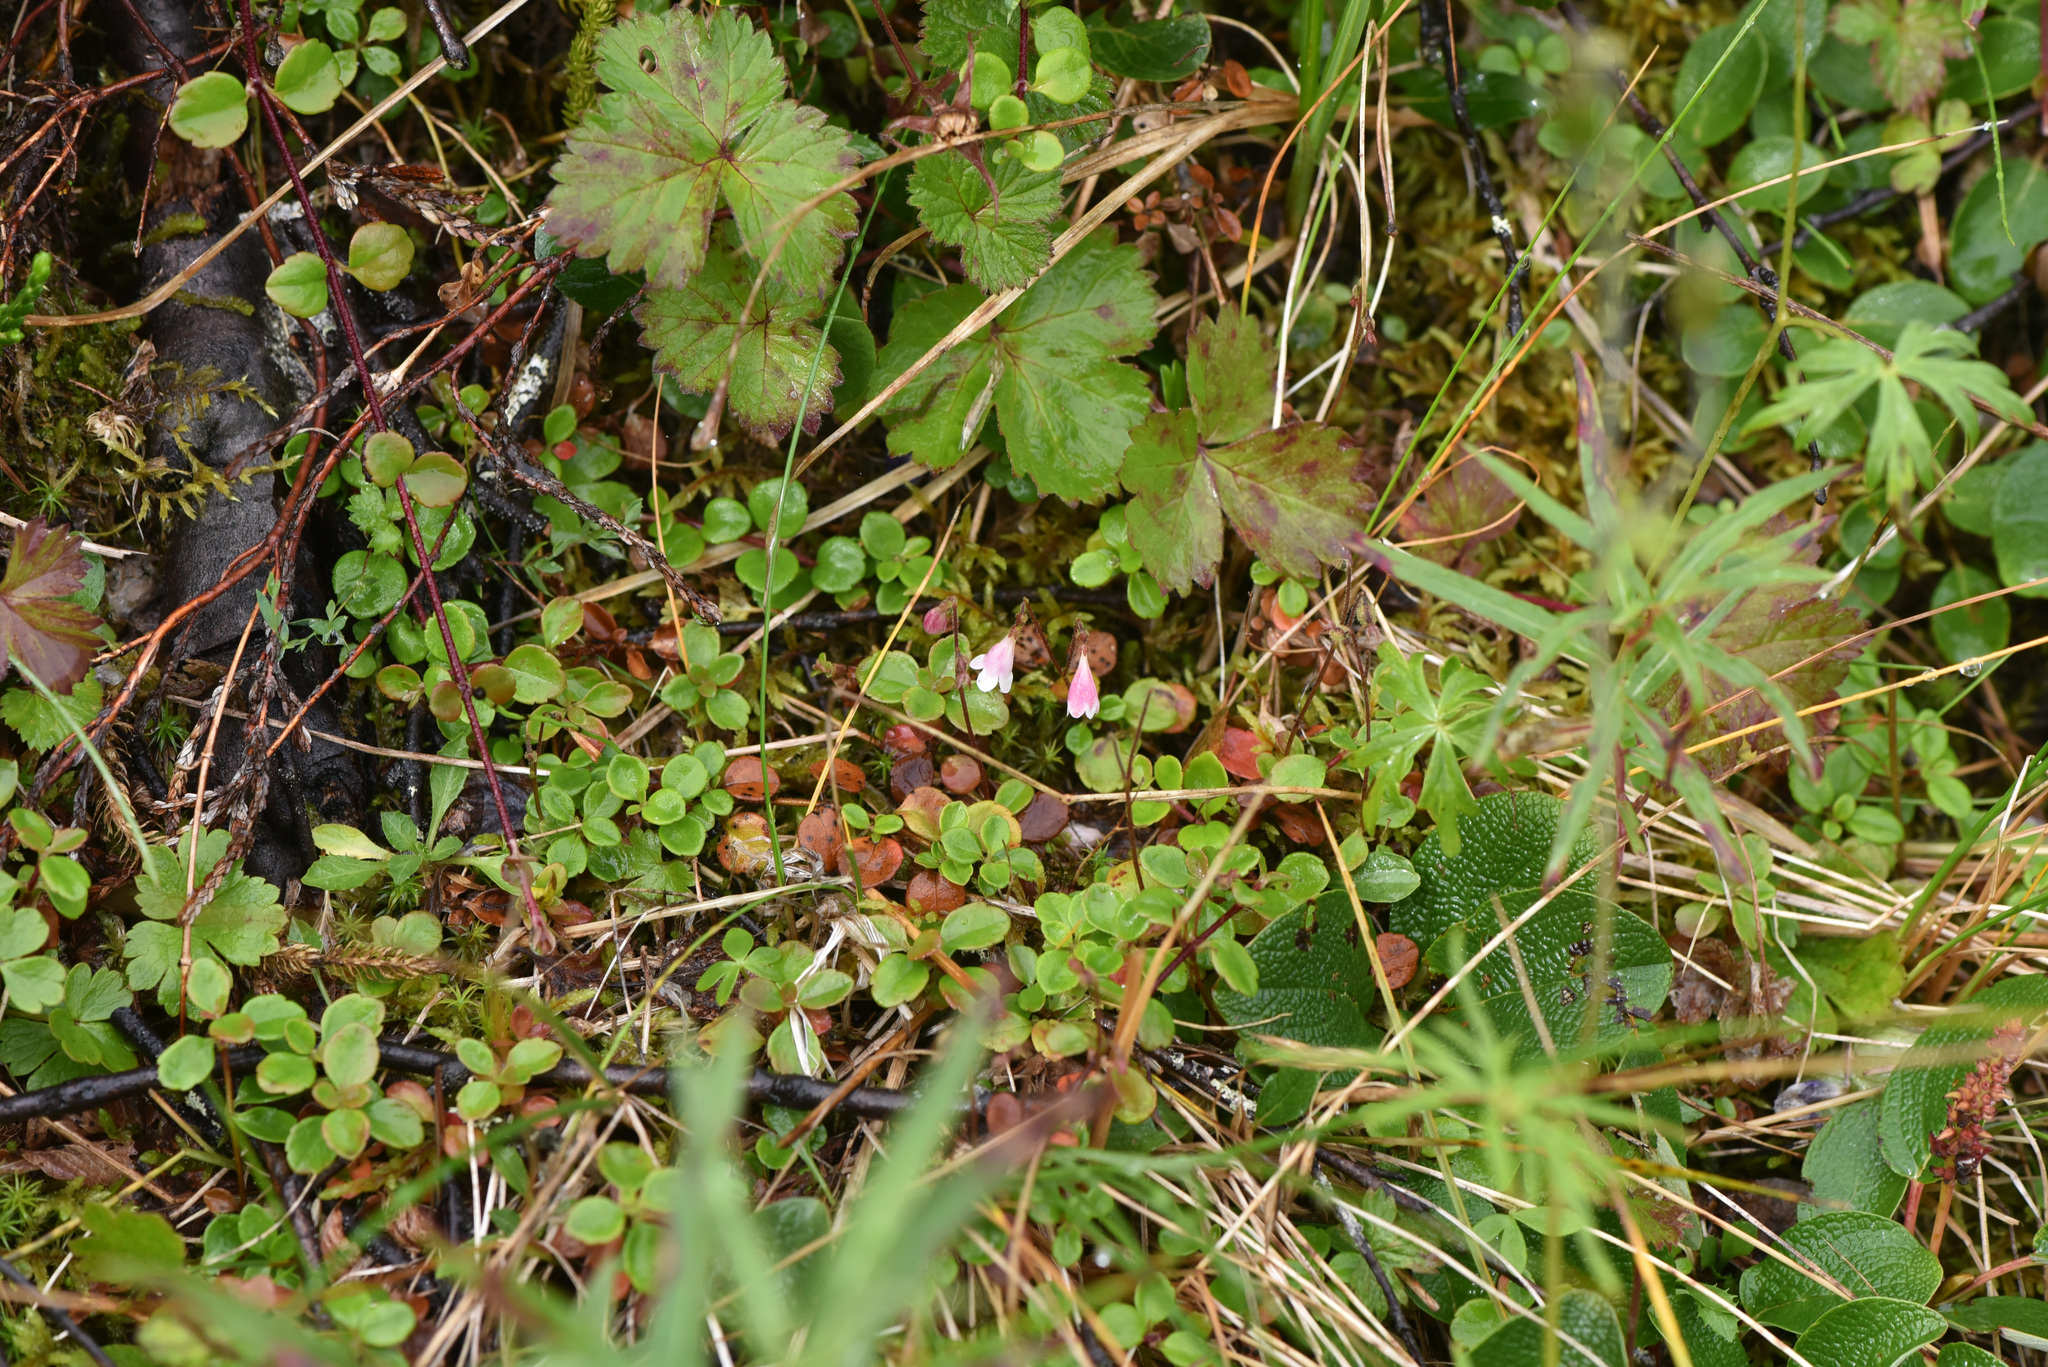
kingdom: Plantae
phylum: Tracheophyta
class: Magnoliopsida
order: Dipsacales
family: Caprifoliaceae
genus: Linnaea
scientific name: Linnaea borealis
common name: Twinflower
